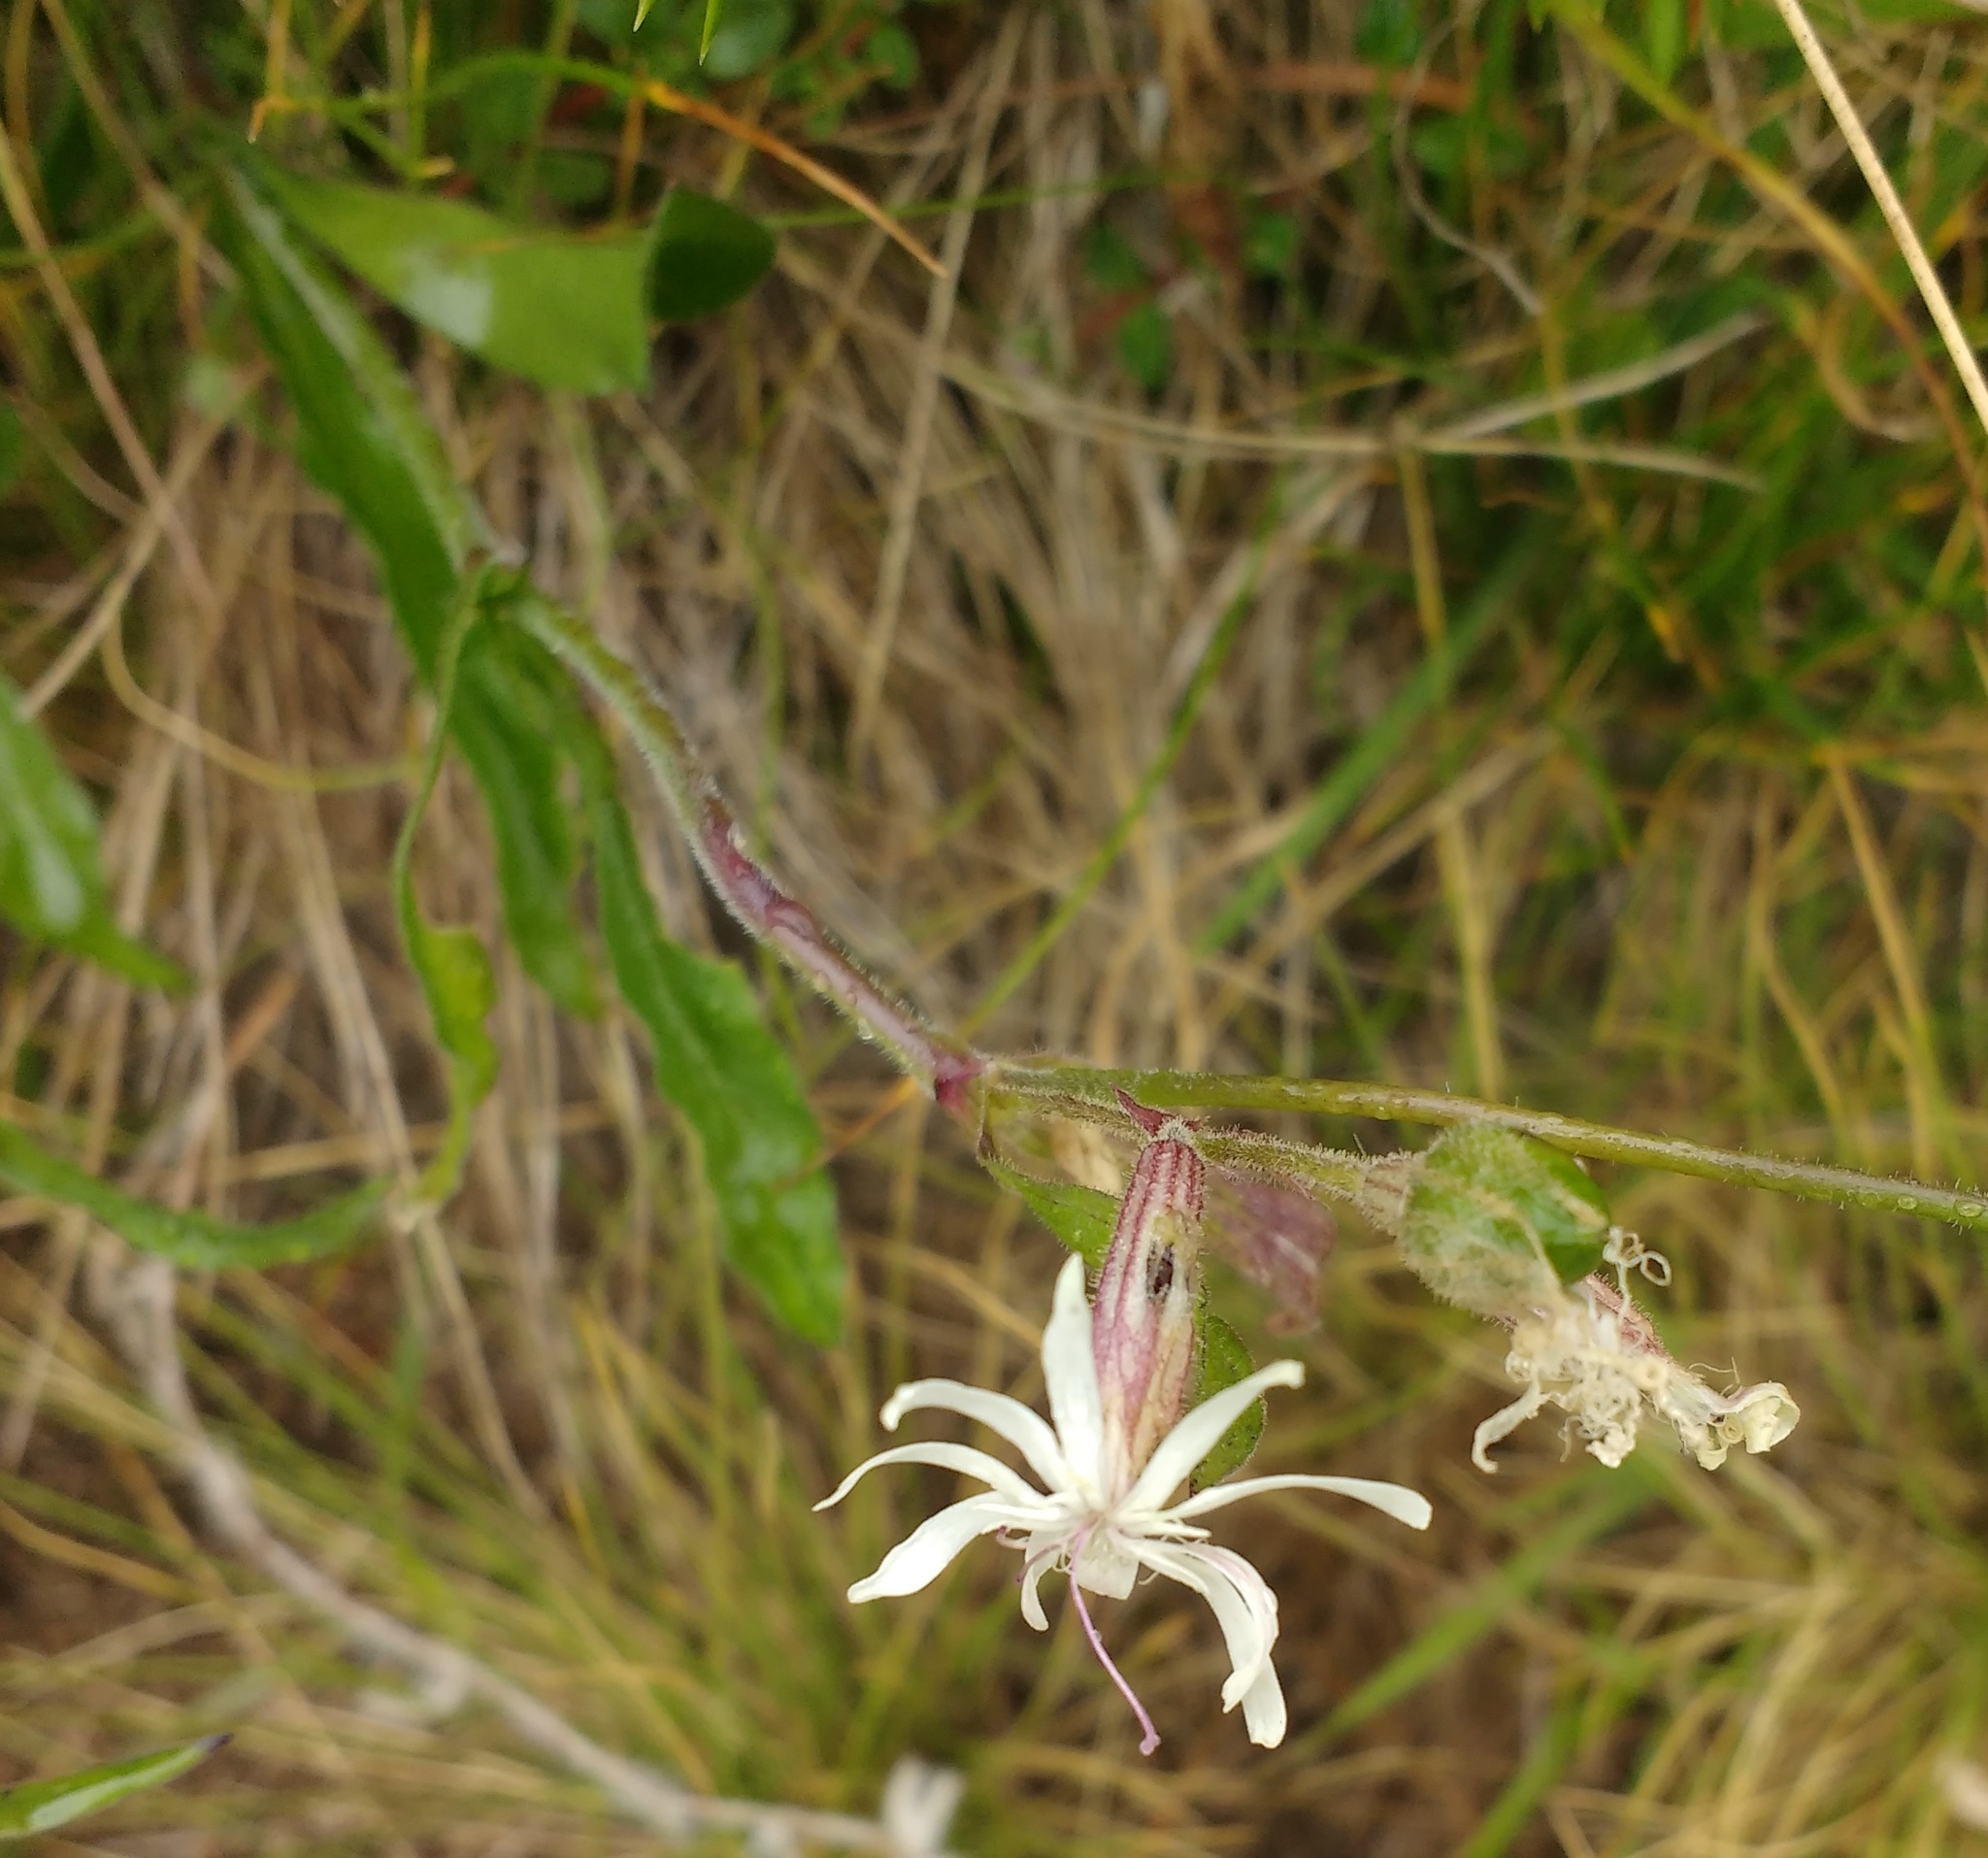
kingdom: Plantae
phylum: Tracheophyta
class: Magnoliopsida
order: Caryophyllales
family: Caryophyllaceae
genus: Silene
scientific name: Silene nutans
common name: Nottingham catchfly
